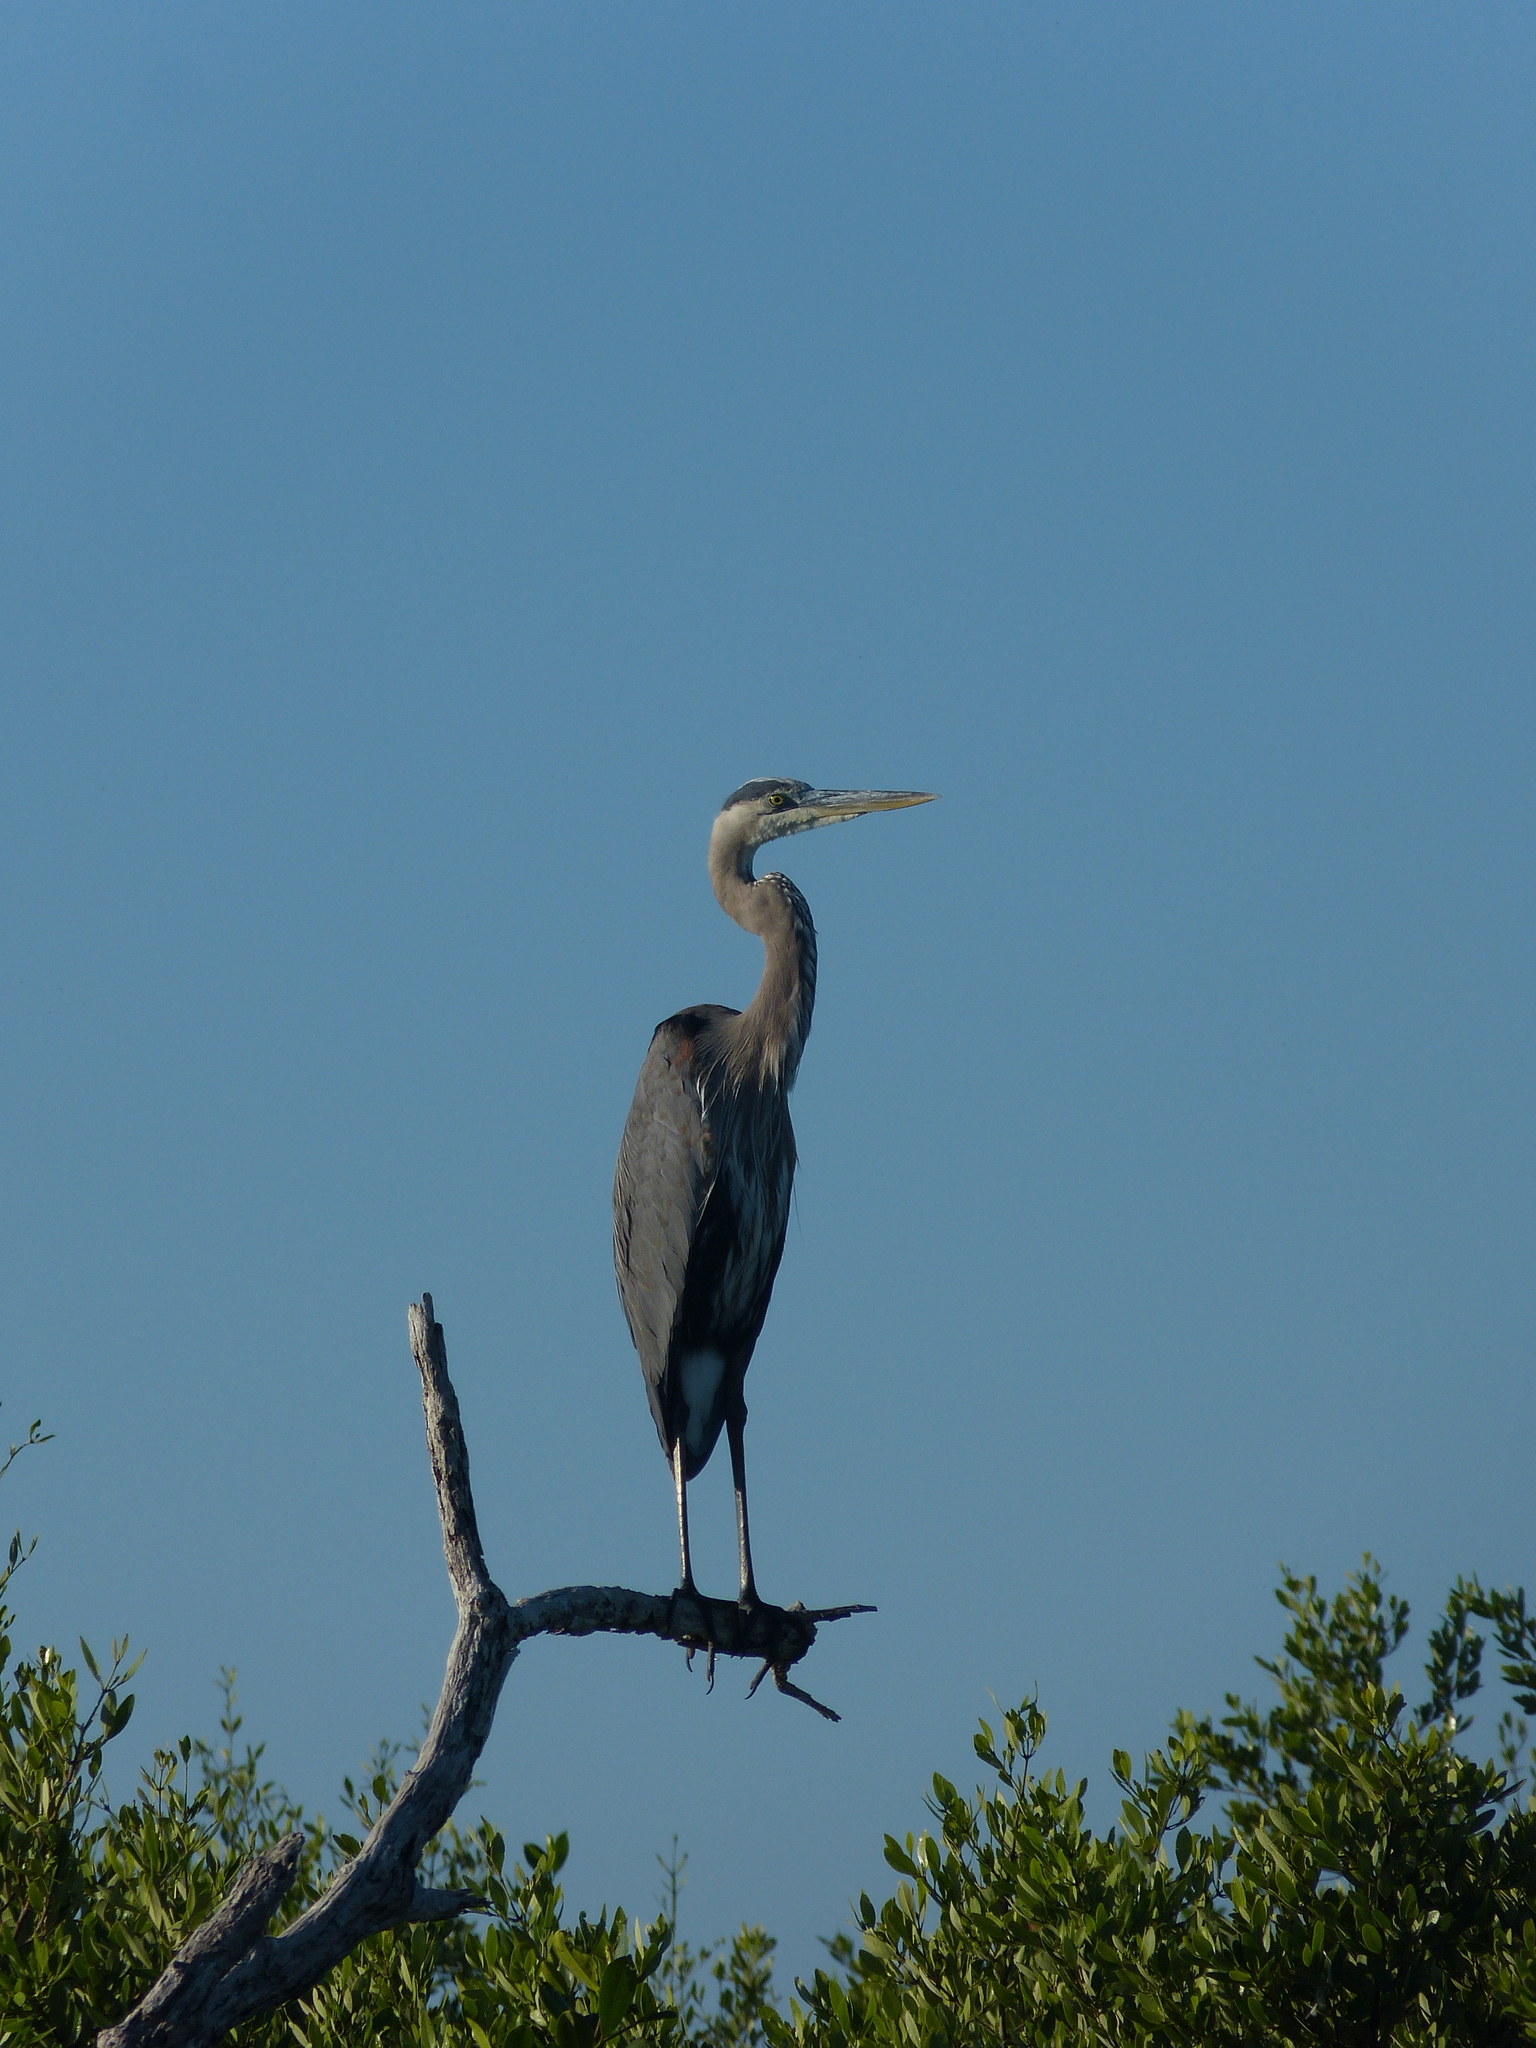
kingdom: Animalia
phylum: Chordata
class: Aves
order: Pelecaniformes
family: Ardeidae
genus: Ardea
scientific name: Ardea herodias
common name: Great blue heron
